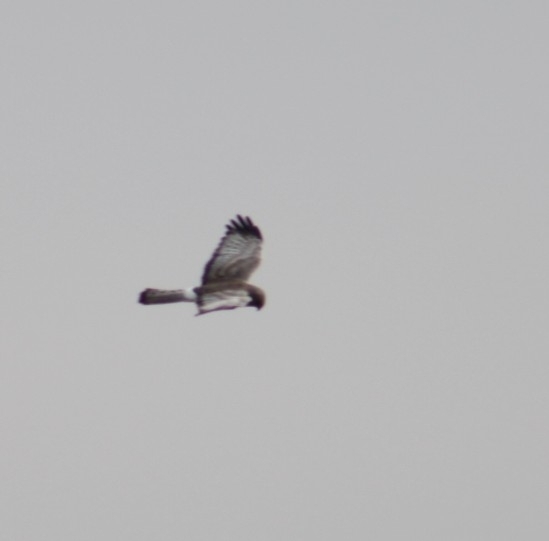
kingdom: Animalia
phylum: Chordata
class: Aves
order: Accipitriformes
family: Accipitridae
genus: Circus
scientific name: Circus cyaneus
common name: Hen harrier
